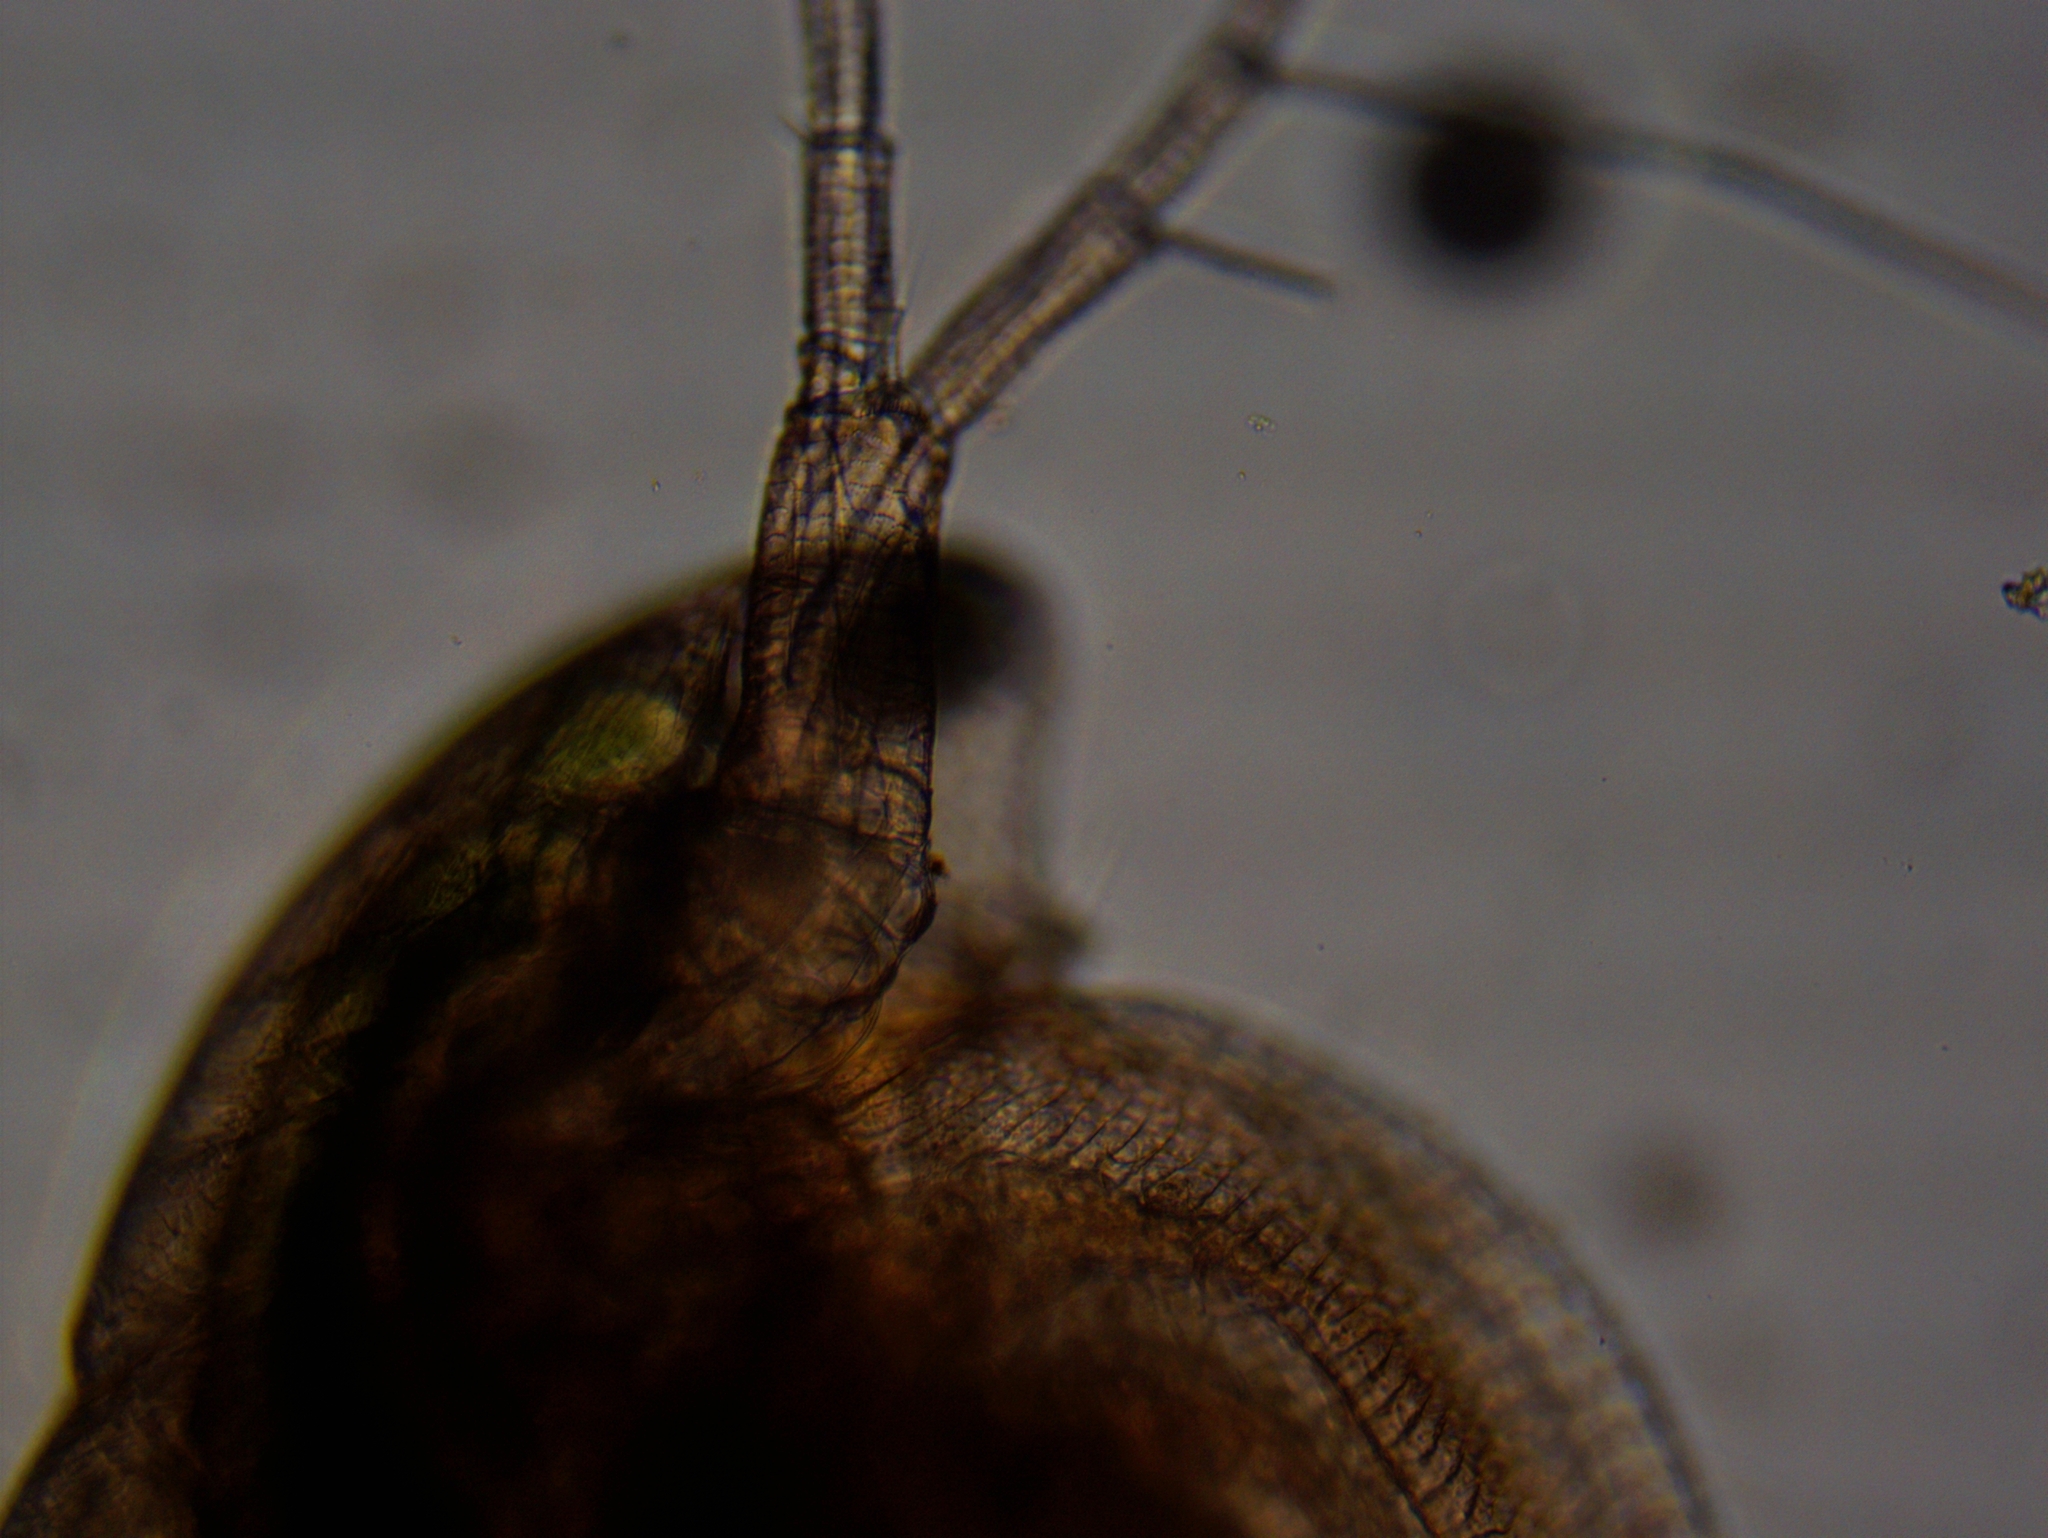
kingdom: Animalia
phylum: Arthropoda
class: Branchiopoda
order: Diplostraca
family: Daphniidae
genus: Simocephalus
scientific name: Simocephalus exspinosus
